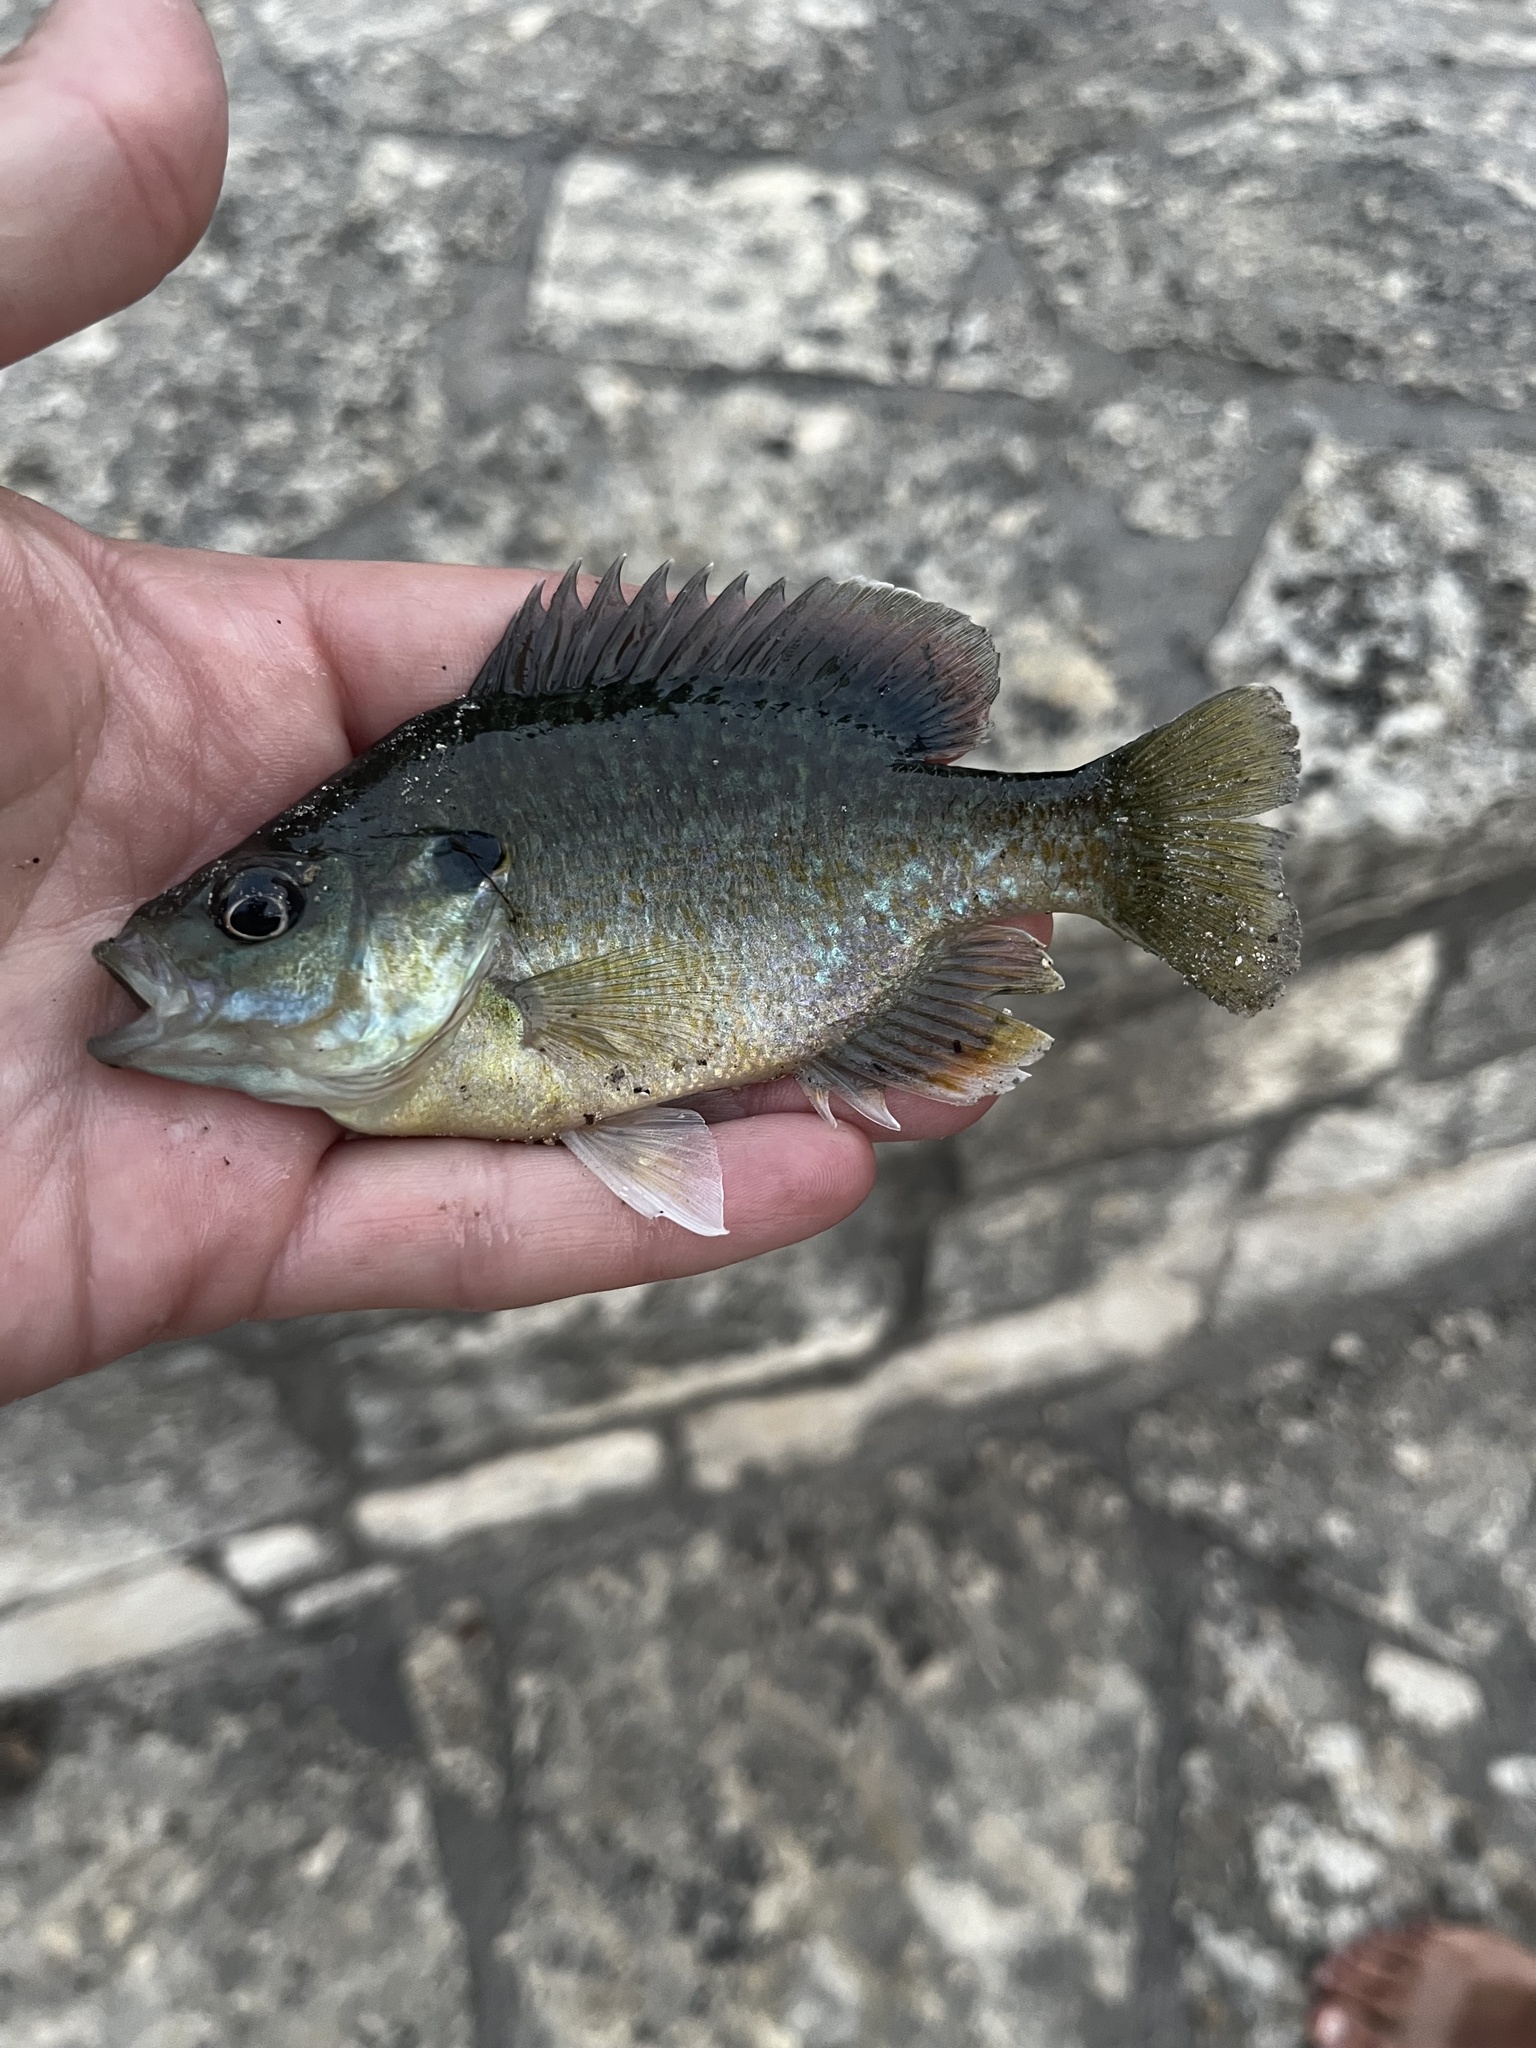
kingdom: Animalia
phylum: Chordata
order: Perciformes
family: Centrarchidae
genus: Lepomis
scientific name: Lepomis
